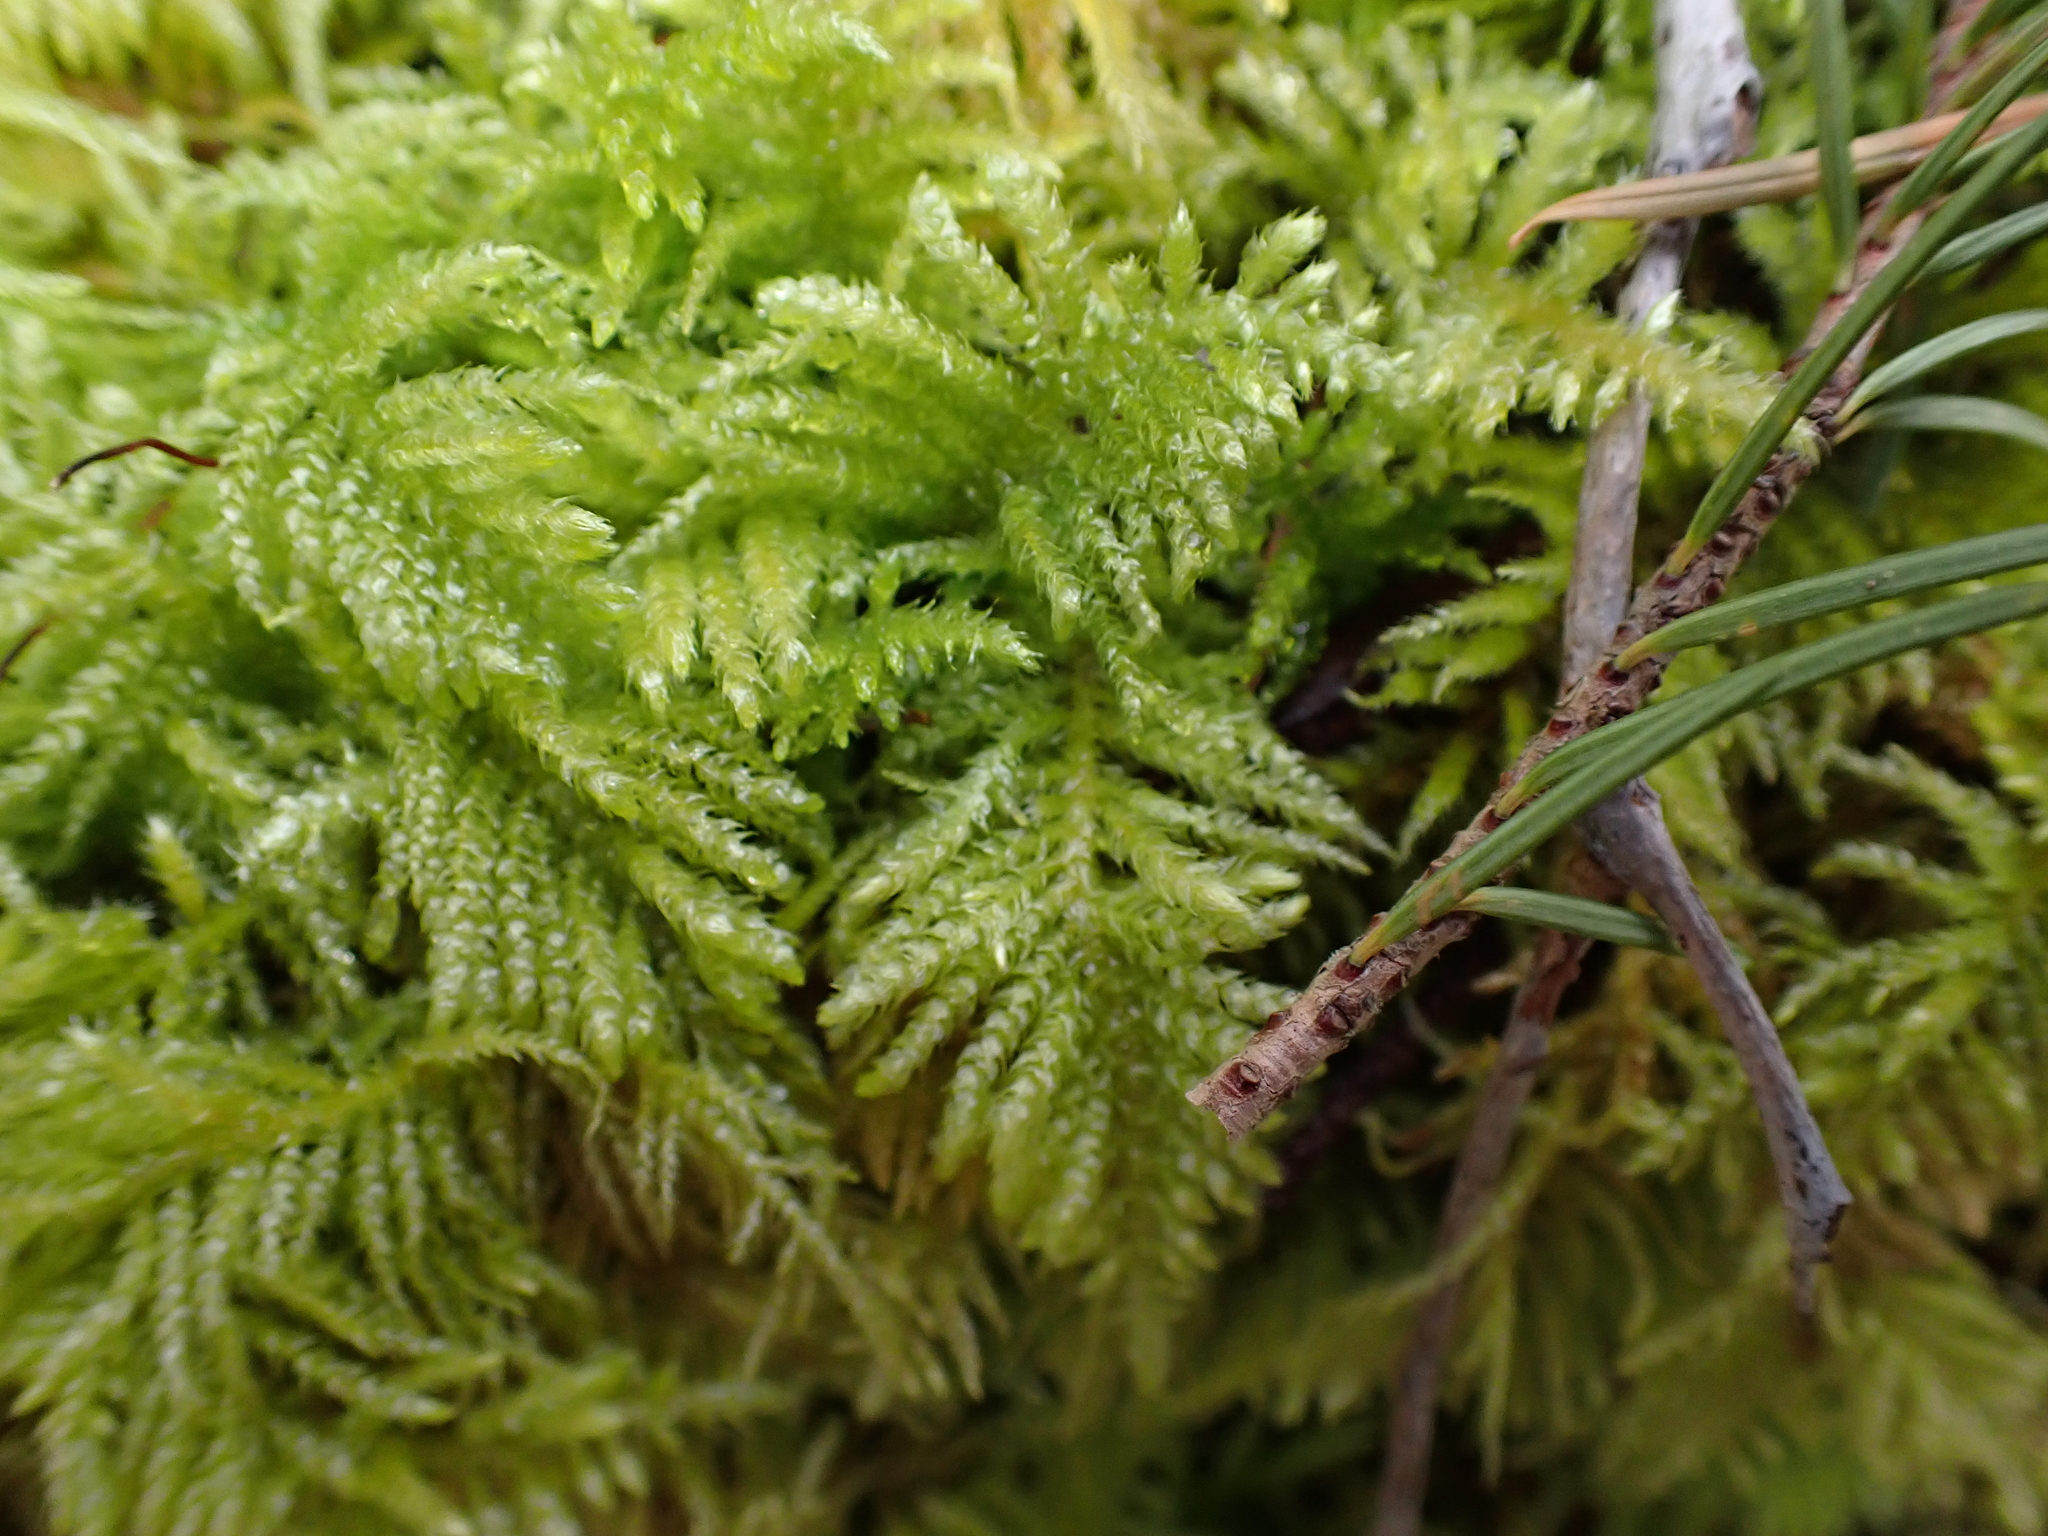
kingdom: Plantae
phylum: Bryophyta
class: Bryopsida
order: Hypnales
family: Brachytheciaceae
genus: Kindbergia
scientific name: Kindbergia oregana
